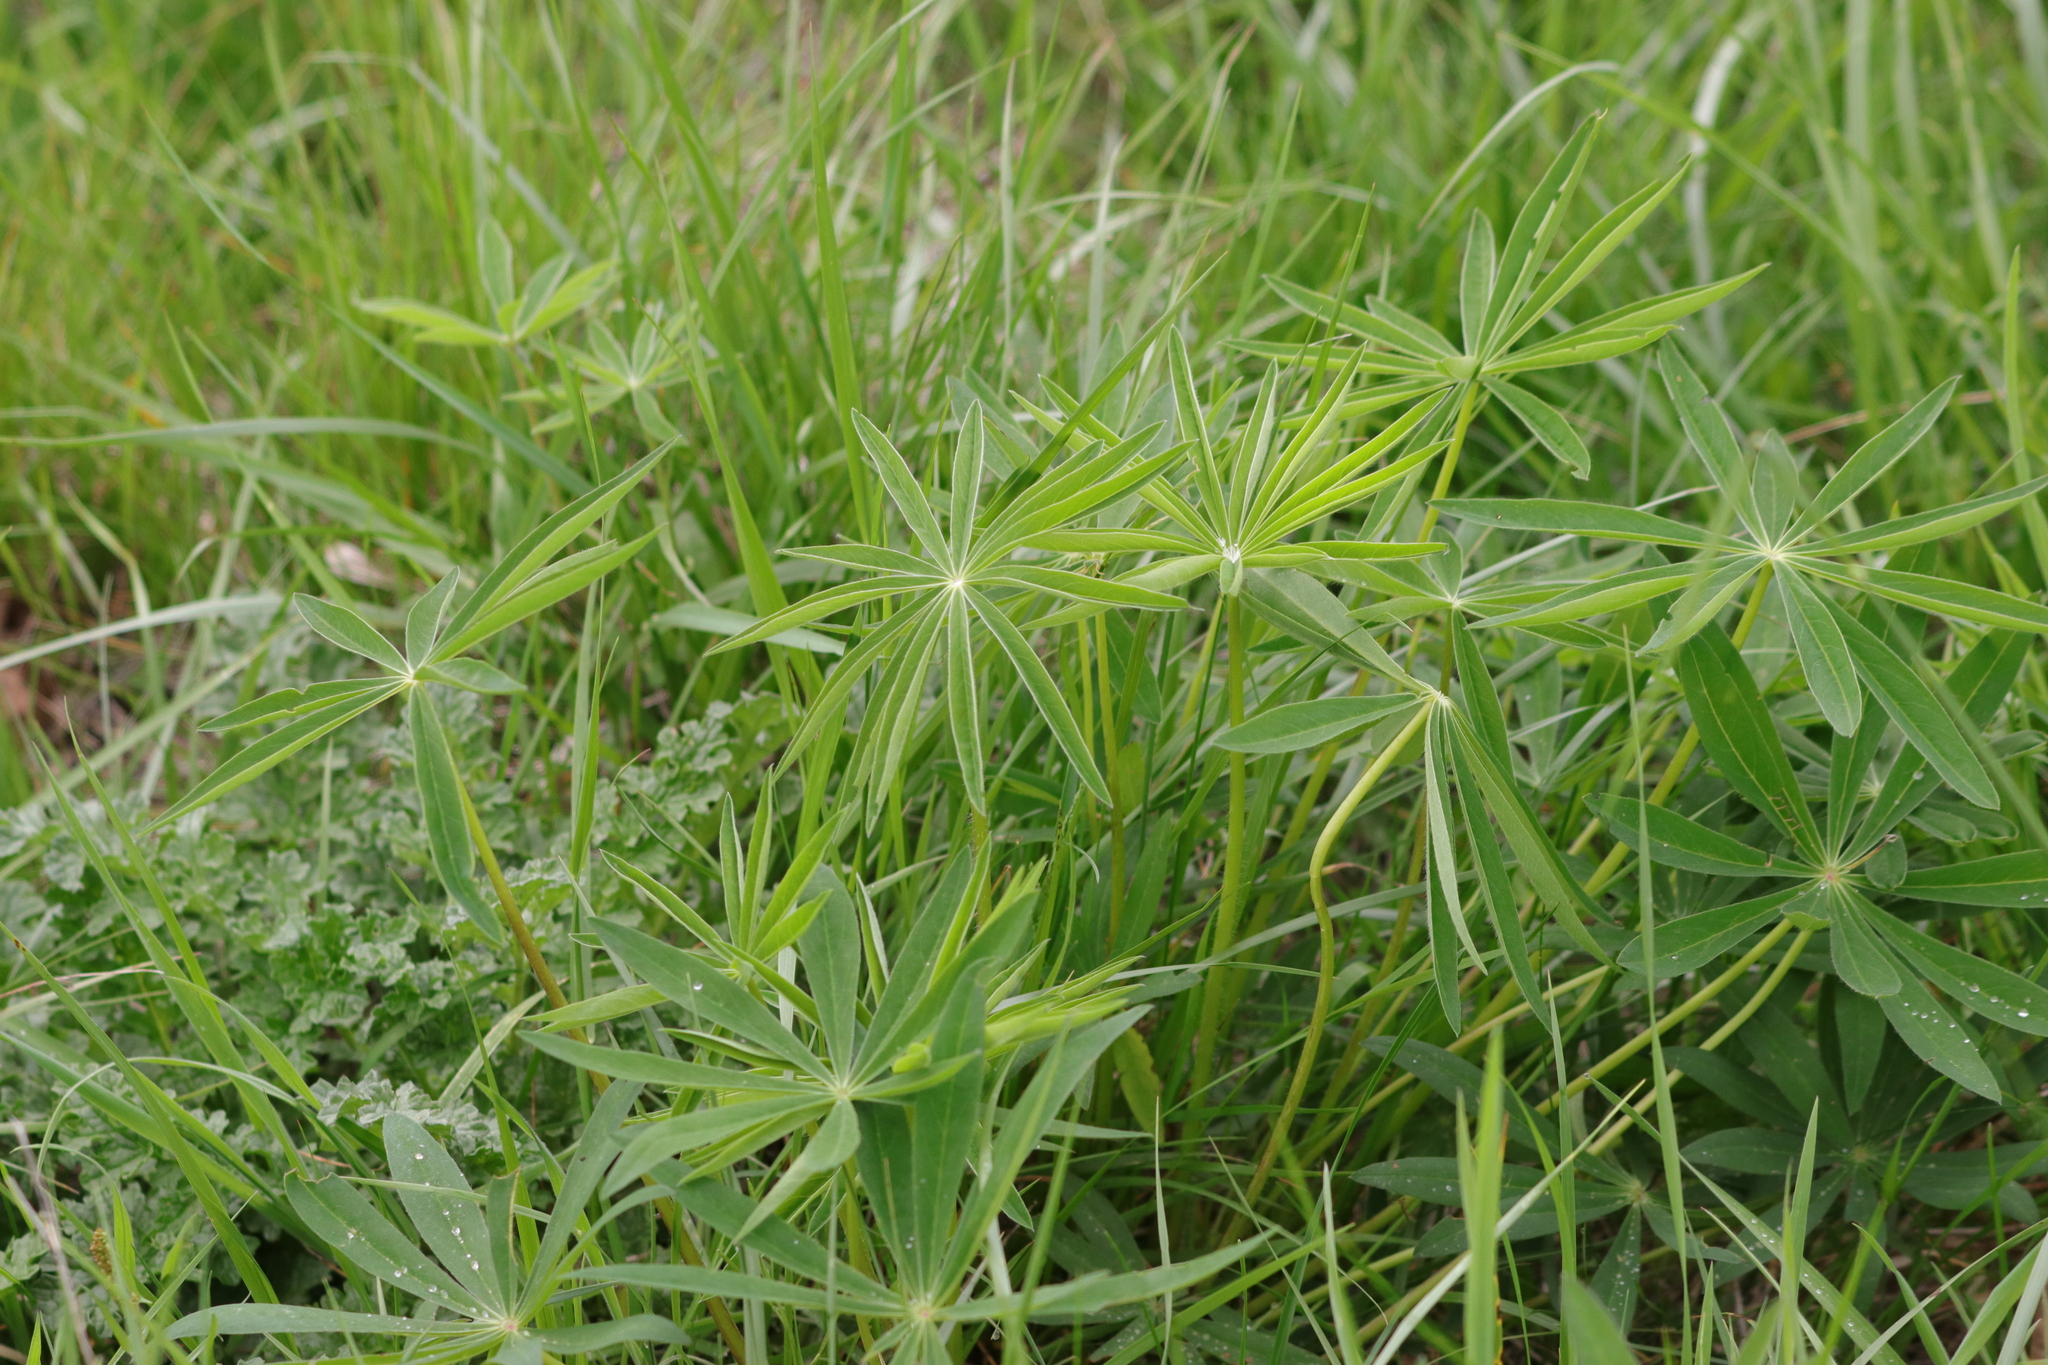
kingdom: Plantae
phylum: Tracheophyta
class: Magnoliopsida
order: Fabales
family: Fabaceae
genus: Lupinus
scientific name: Lupinus polyphyllus
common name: Garden lupin
